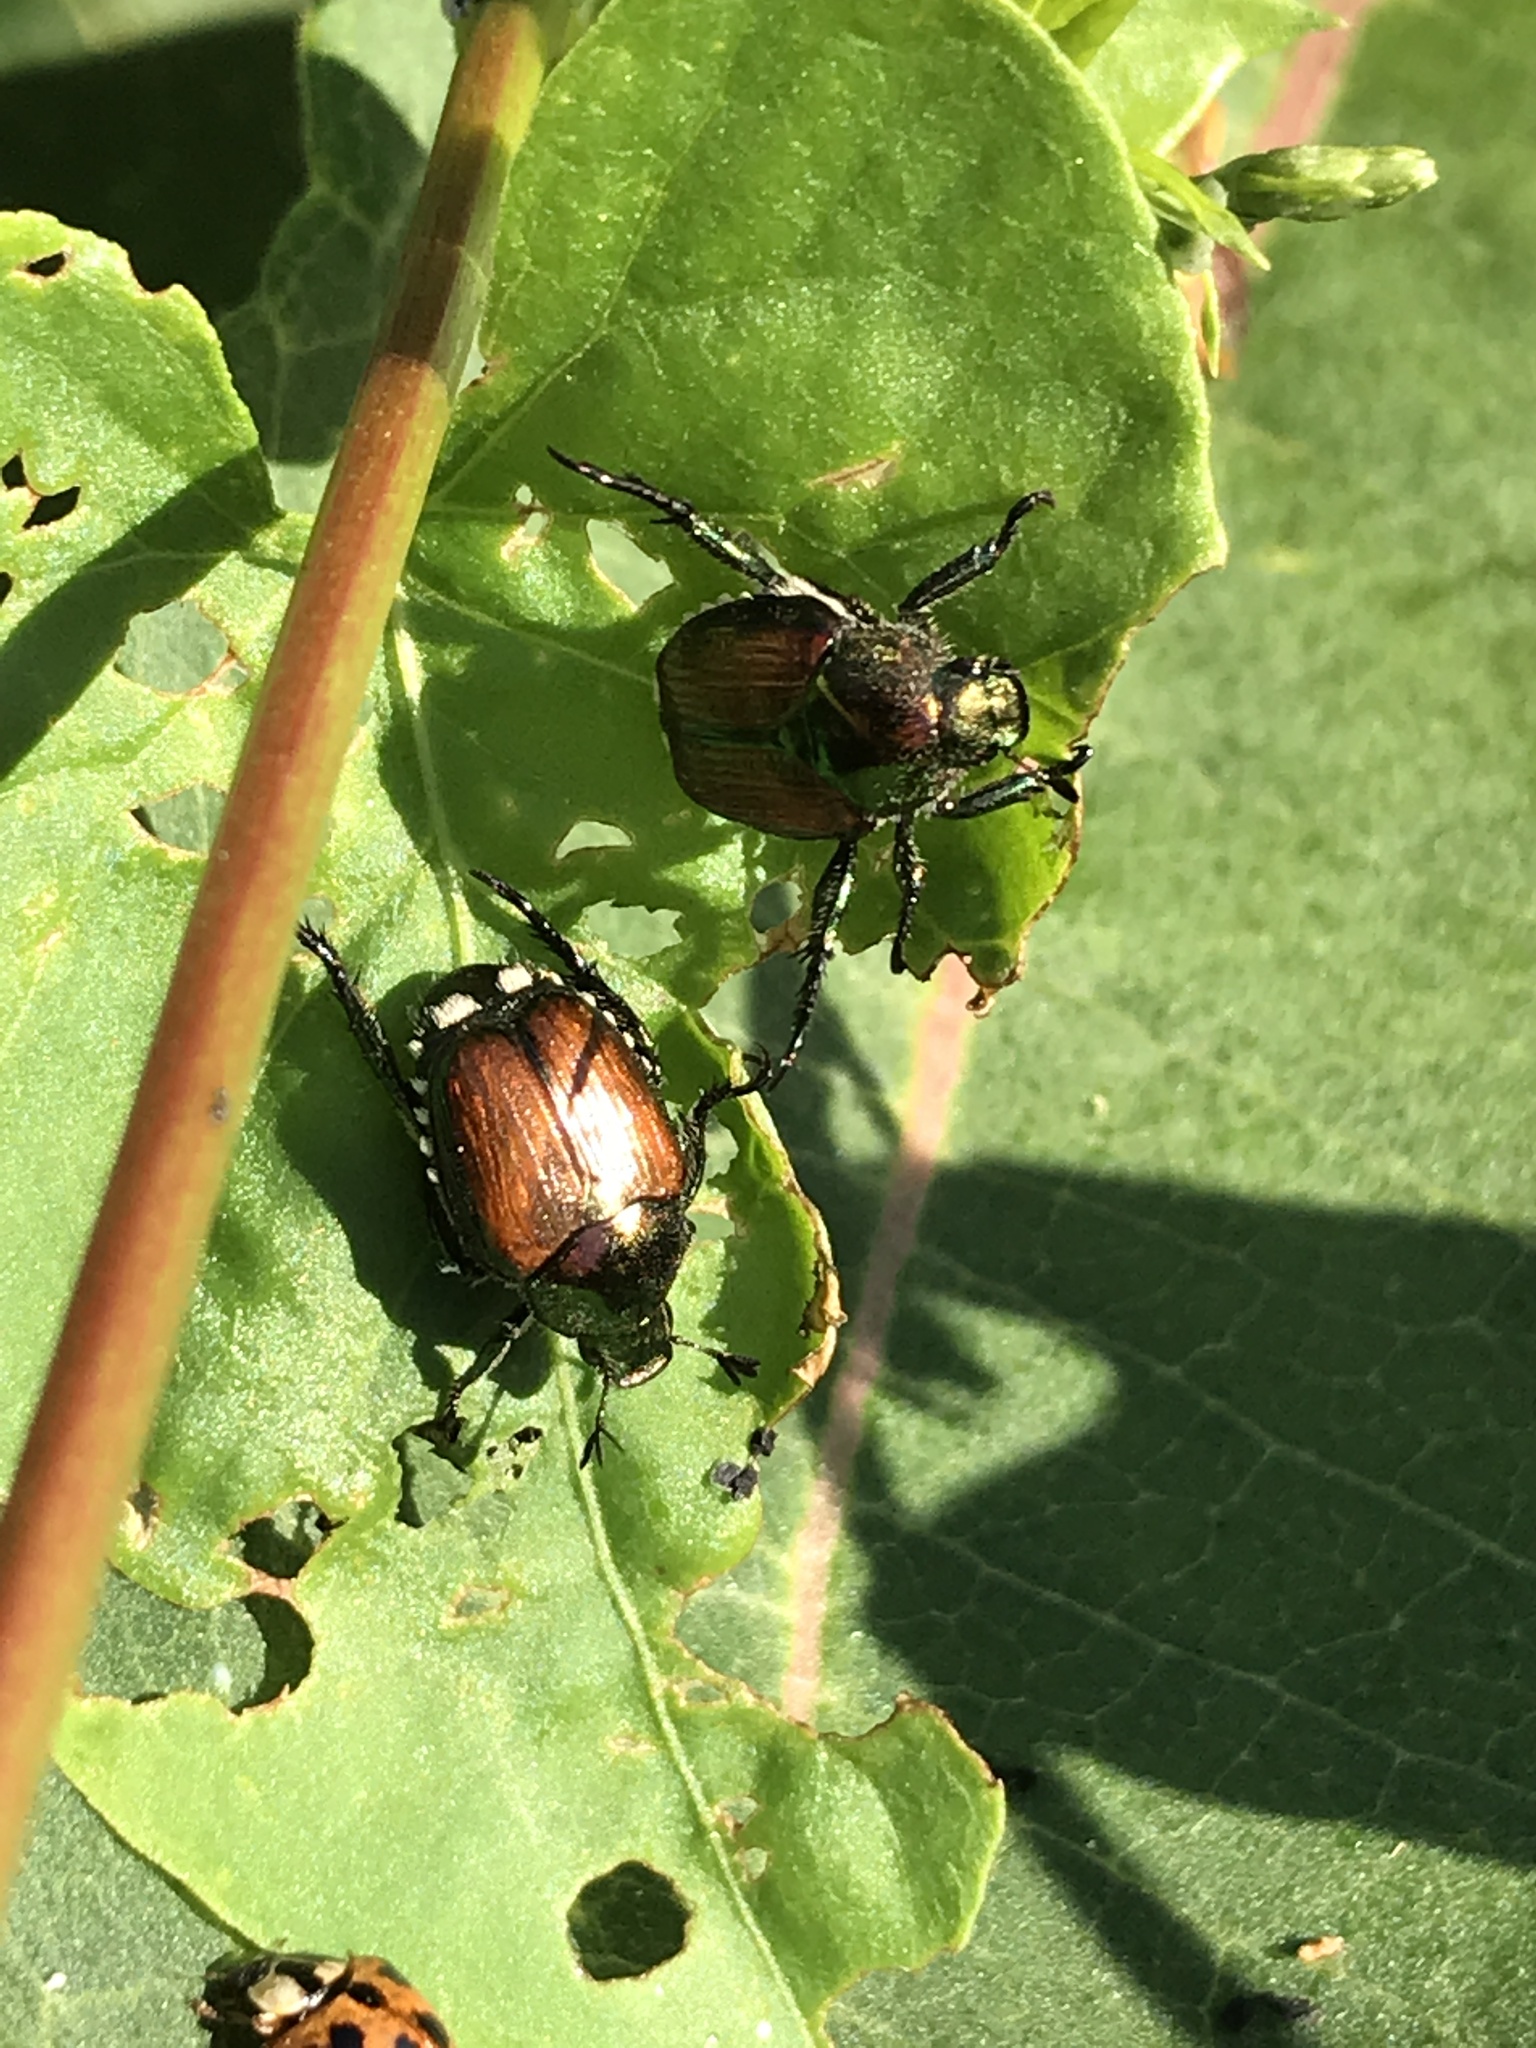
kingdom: Animalia
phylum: Arthropoda
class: Insecta
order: Coleoptera
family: Scarabaeidae
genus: Popillia
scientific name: Popillia japonica
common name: Japanese beetle
